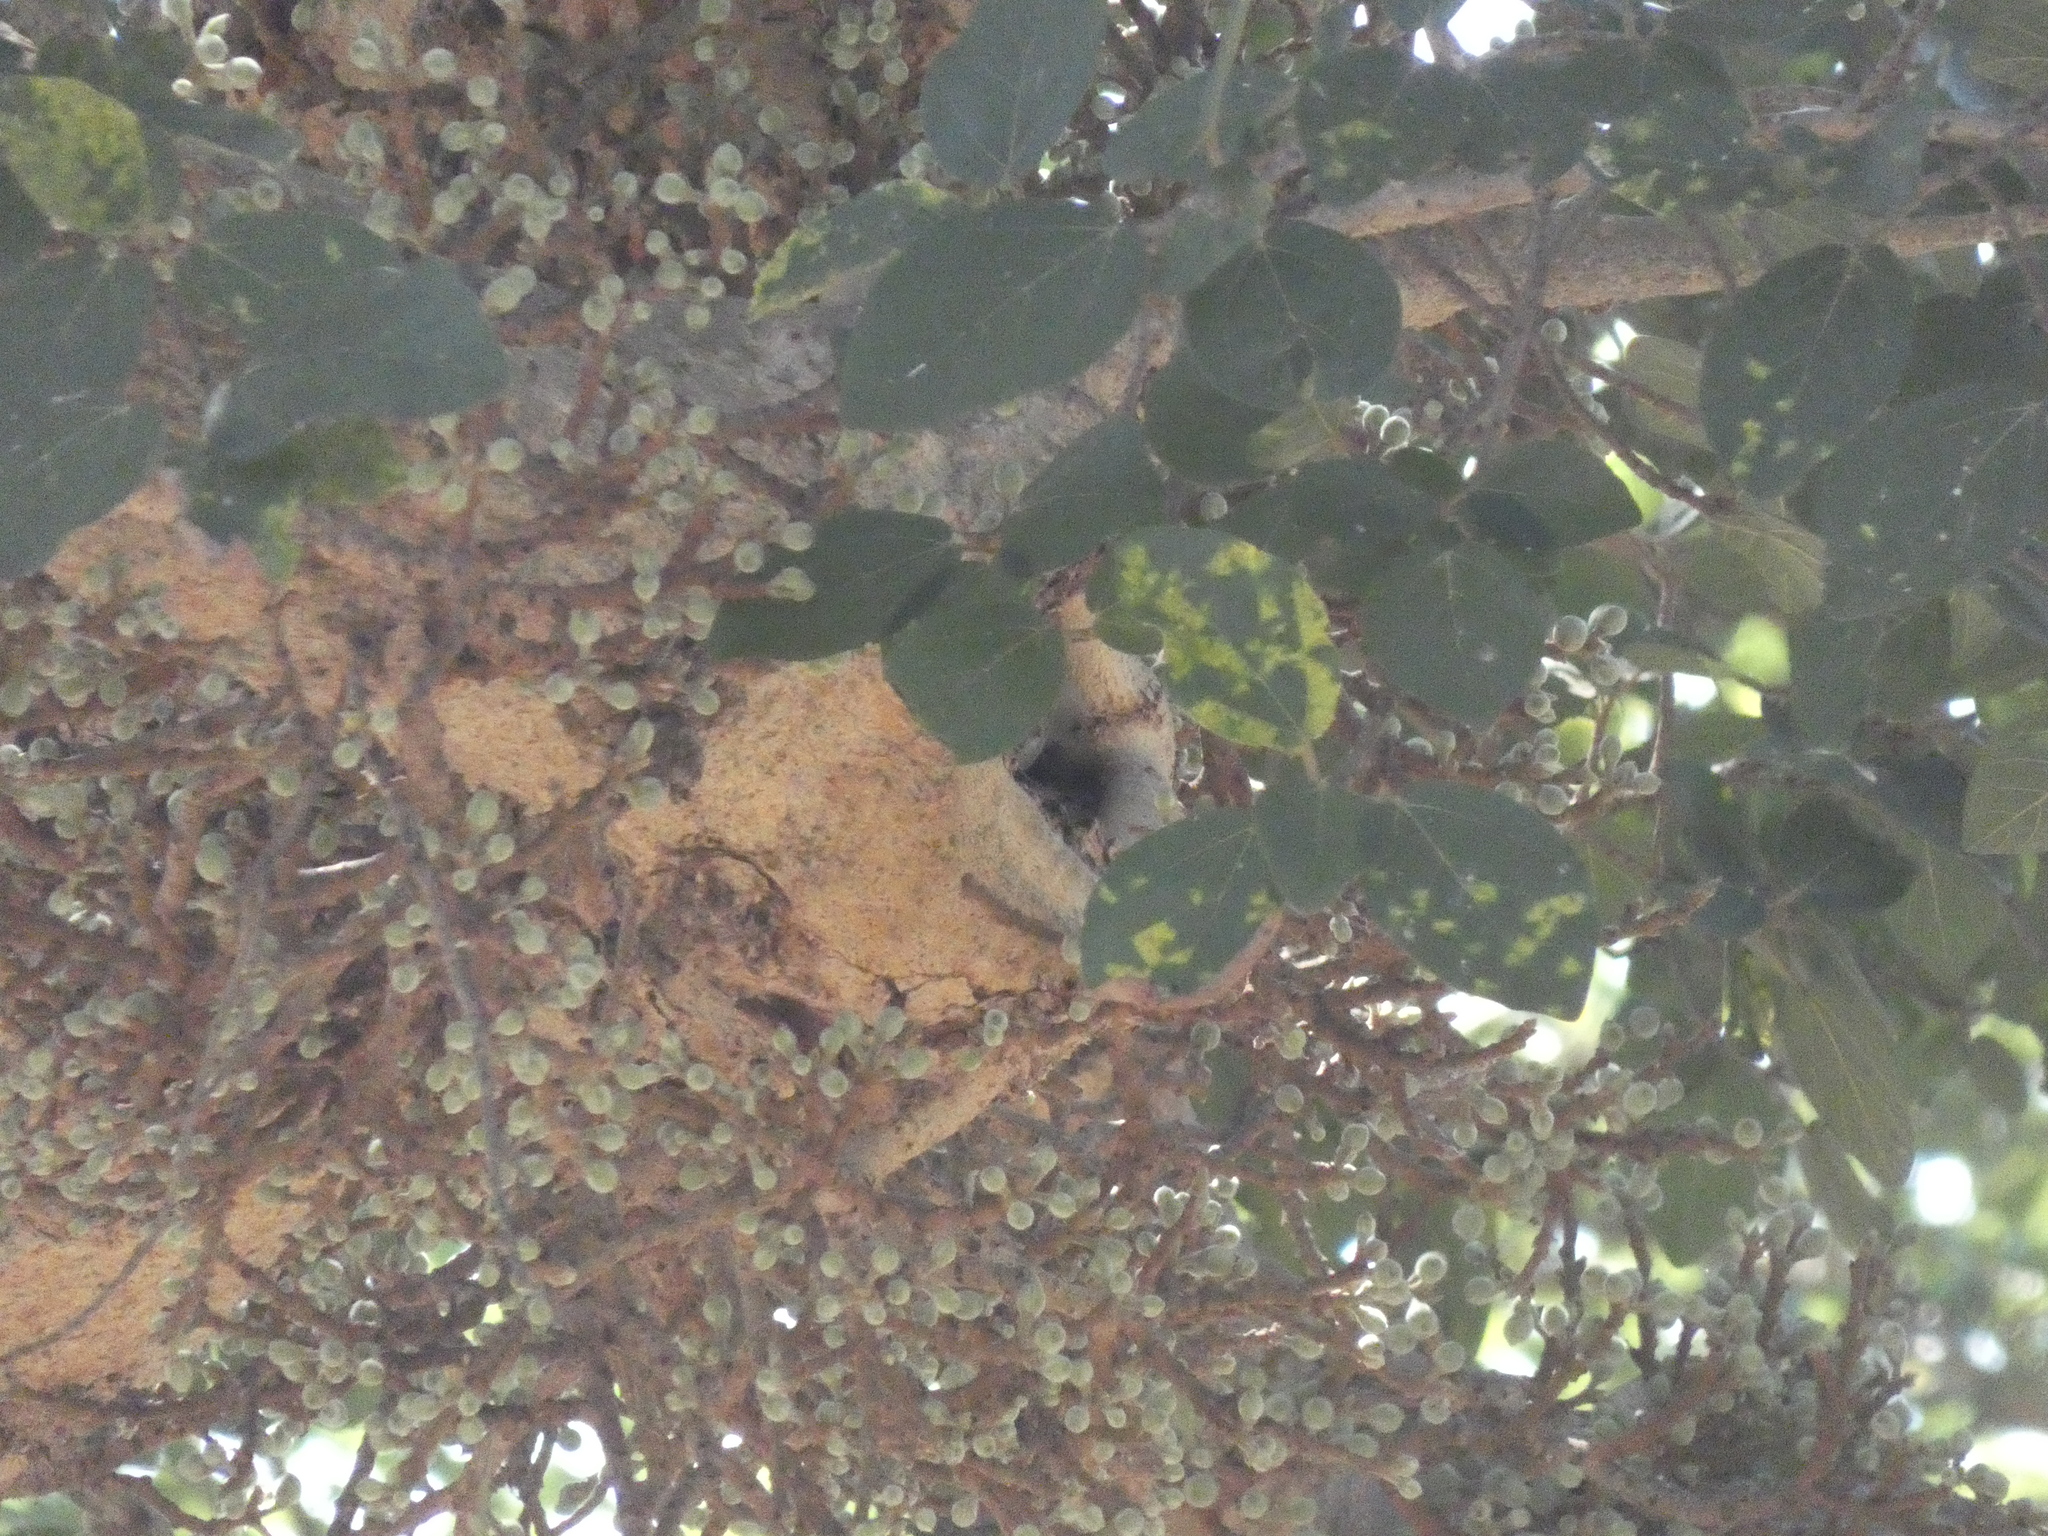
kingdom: Plantae
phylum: Tracheophyta
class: Magnoliopsida
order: Rosales
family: Moraceae
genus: Ficus
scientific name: Ficus sycomorus
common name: Sycomore
